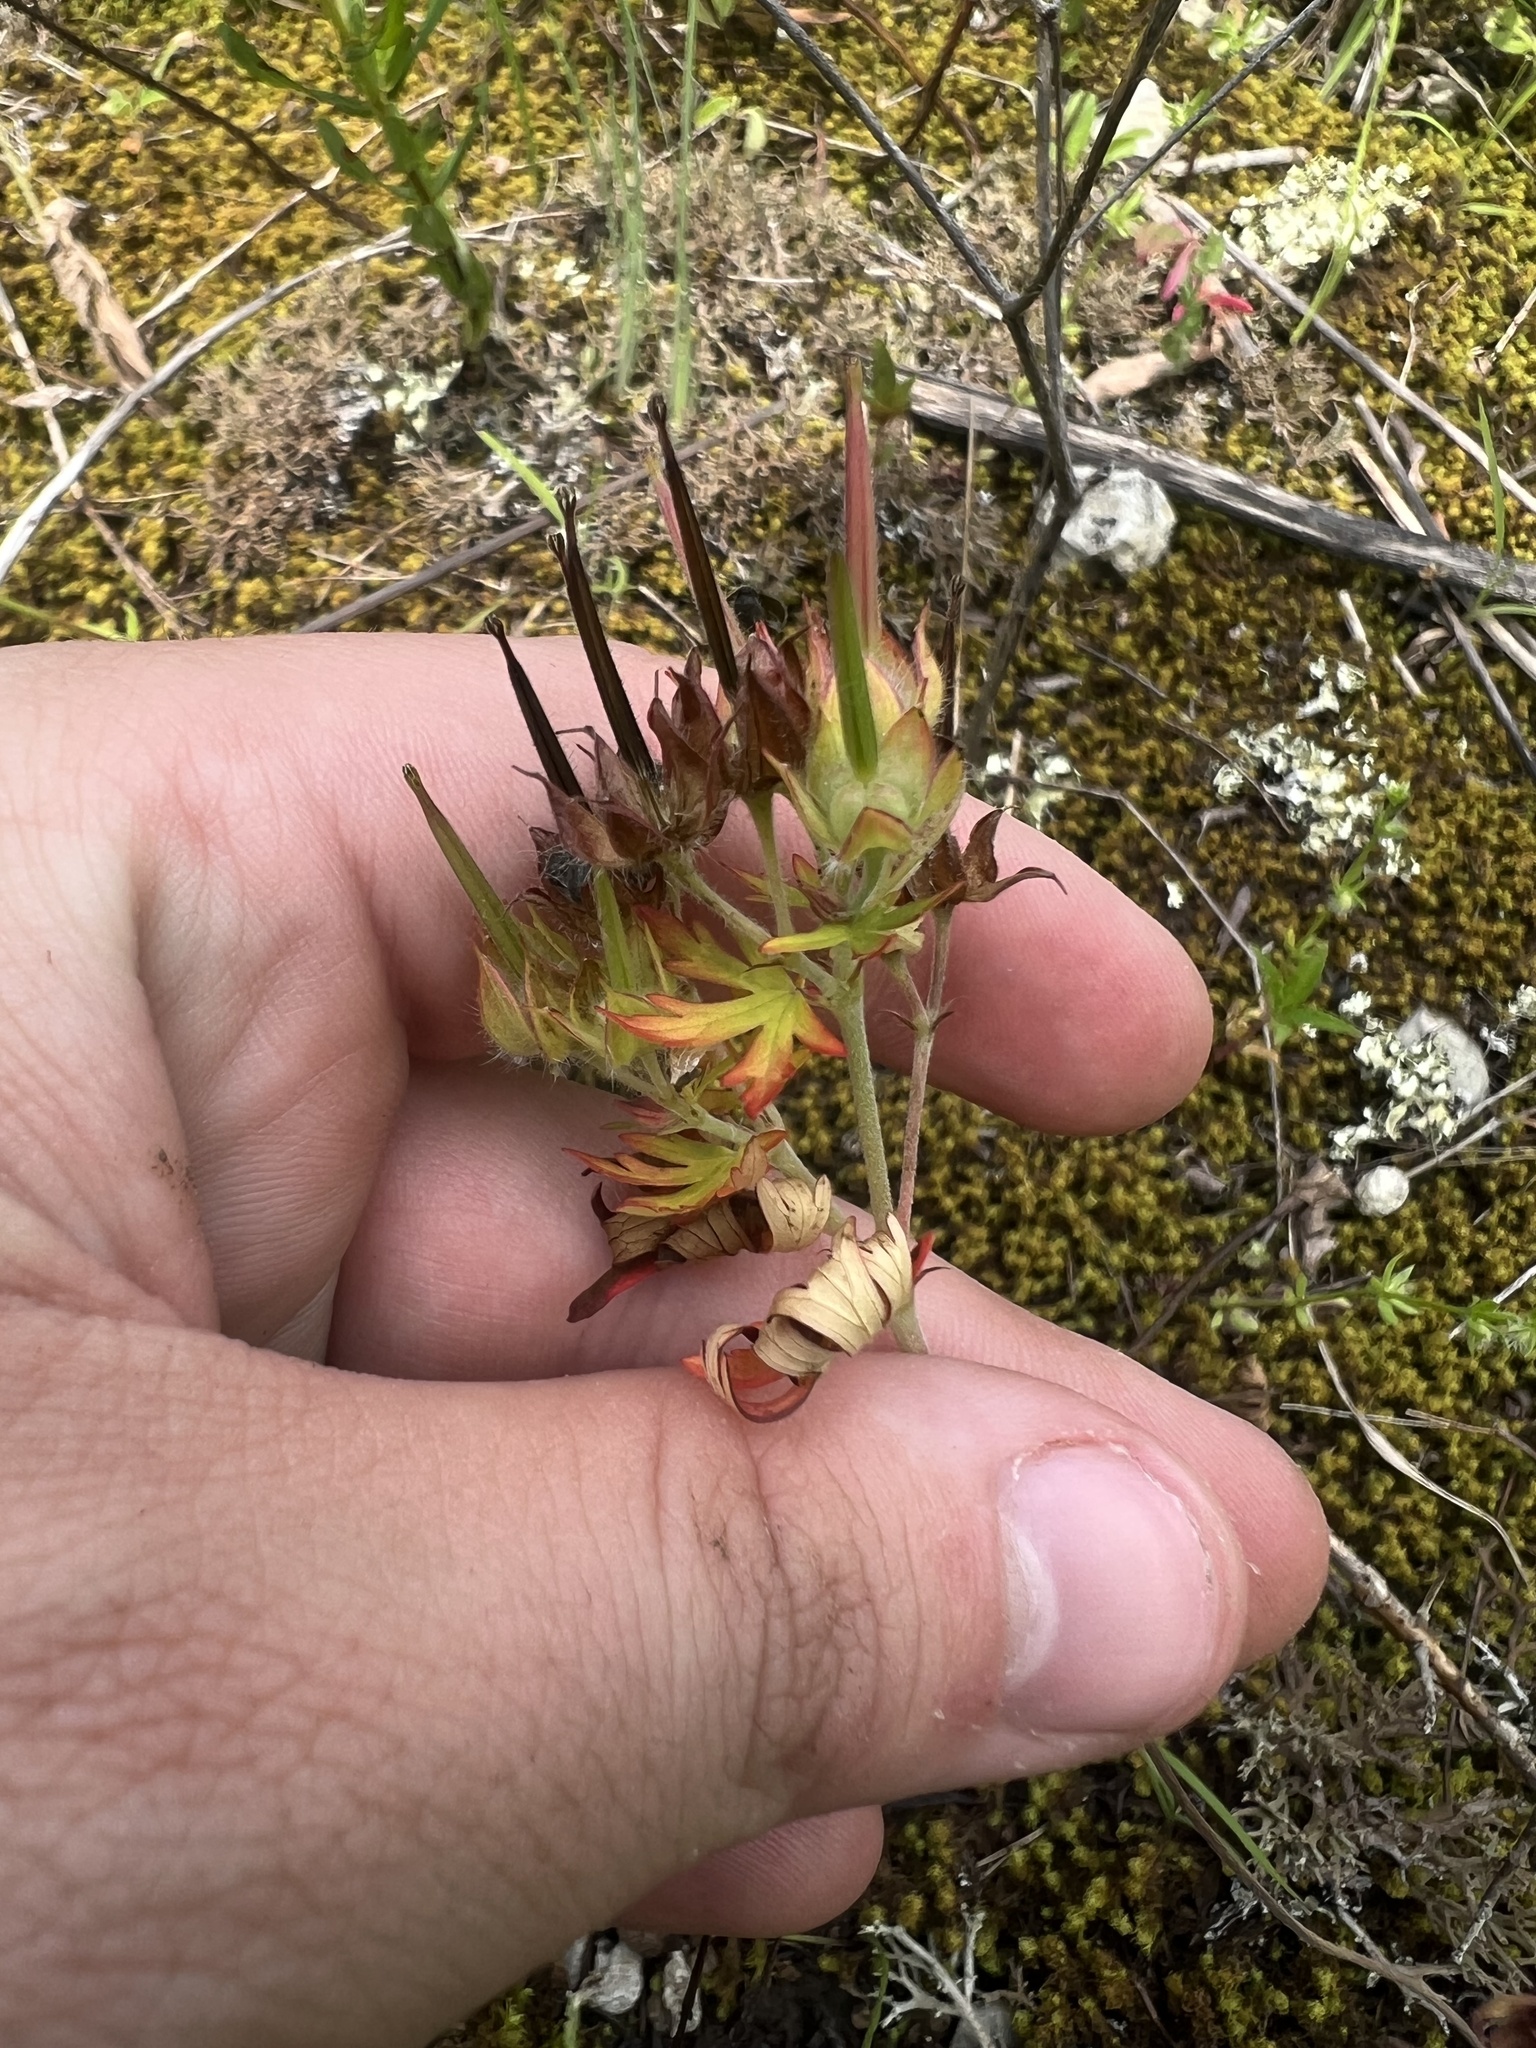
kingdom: Plantae
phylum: Tracheophyta
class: Magnoliopsida
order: Geraniales
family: Geraniaceae
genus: Geranium
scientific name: Geranium carolinianum
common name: Carolina crane's-bill
